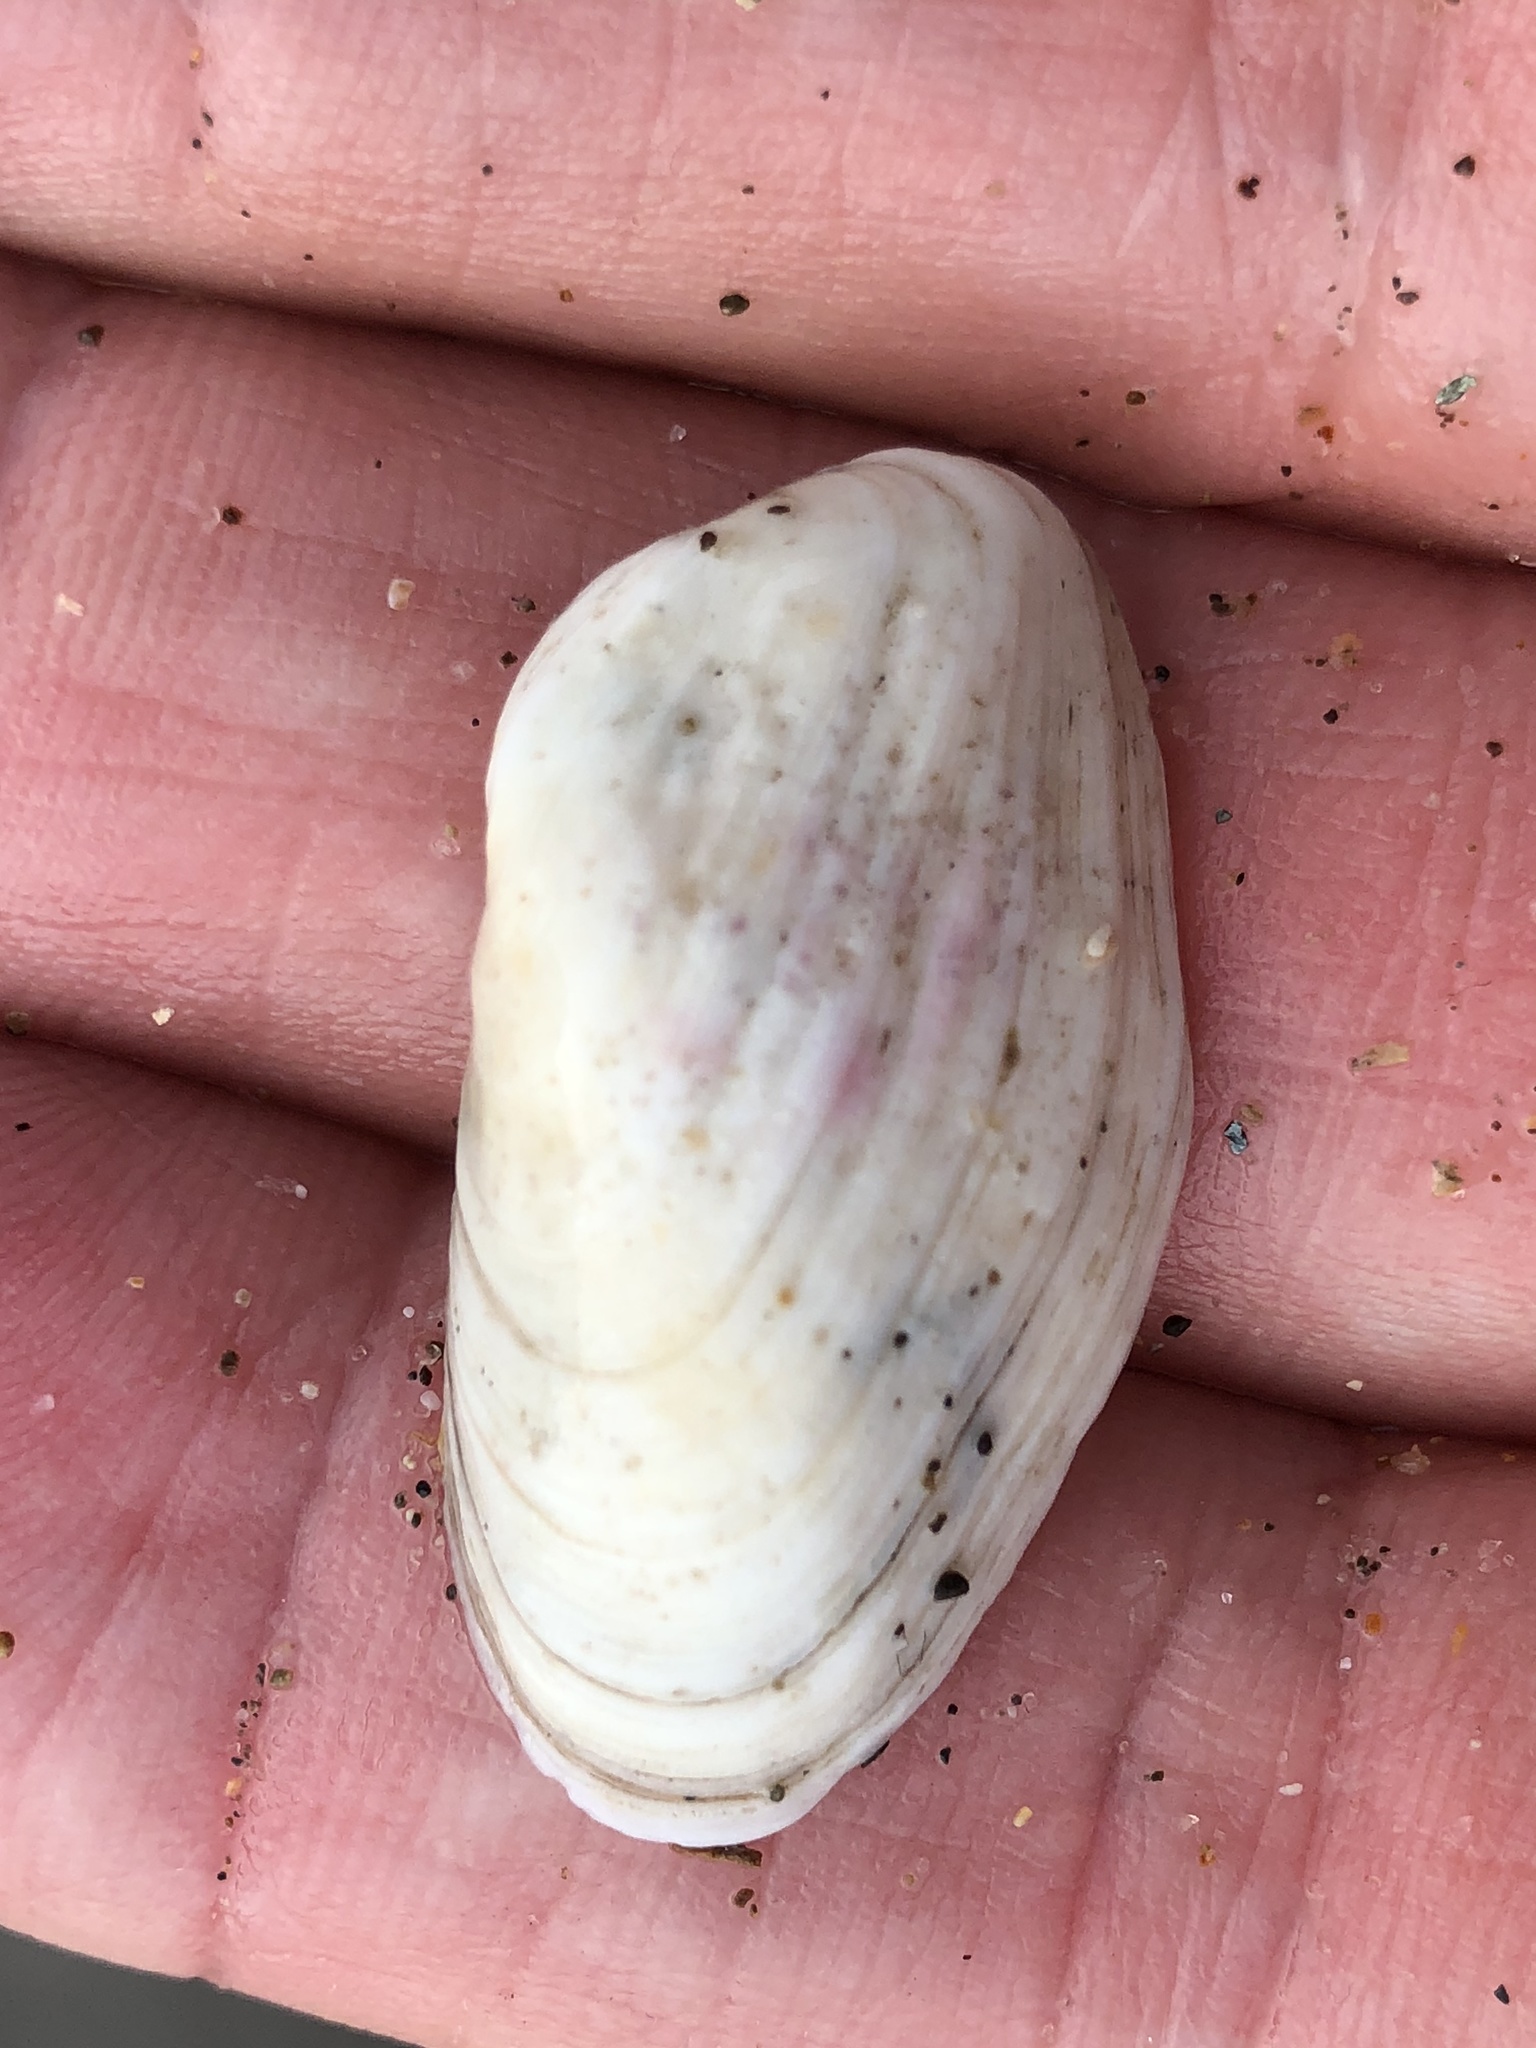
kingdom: Animalia
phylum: Mollusca
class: Bivalvia
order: Venerida
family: Veneridae
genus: Petricola
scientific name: Petricola carditoides
